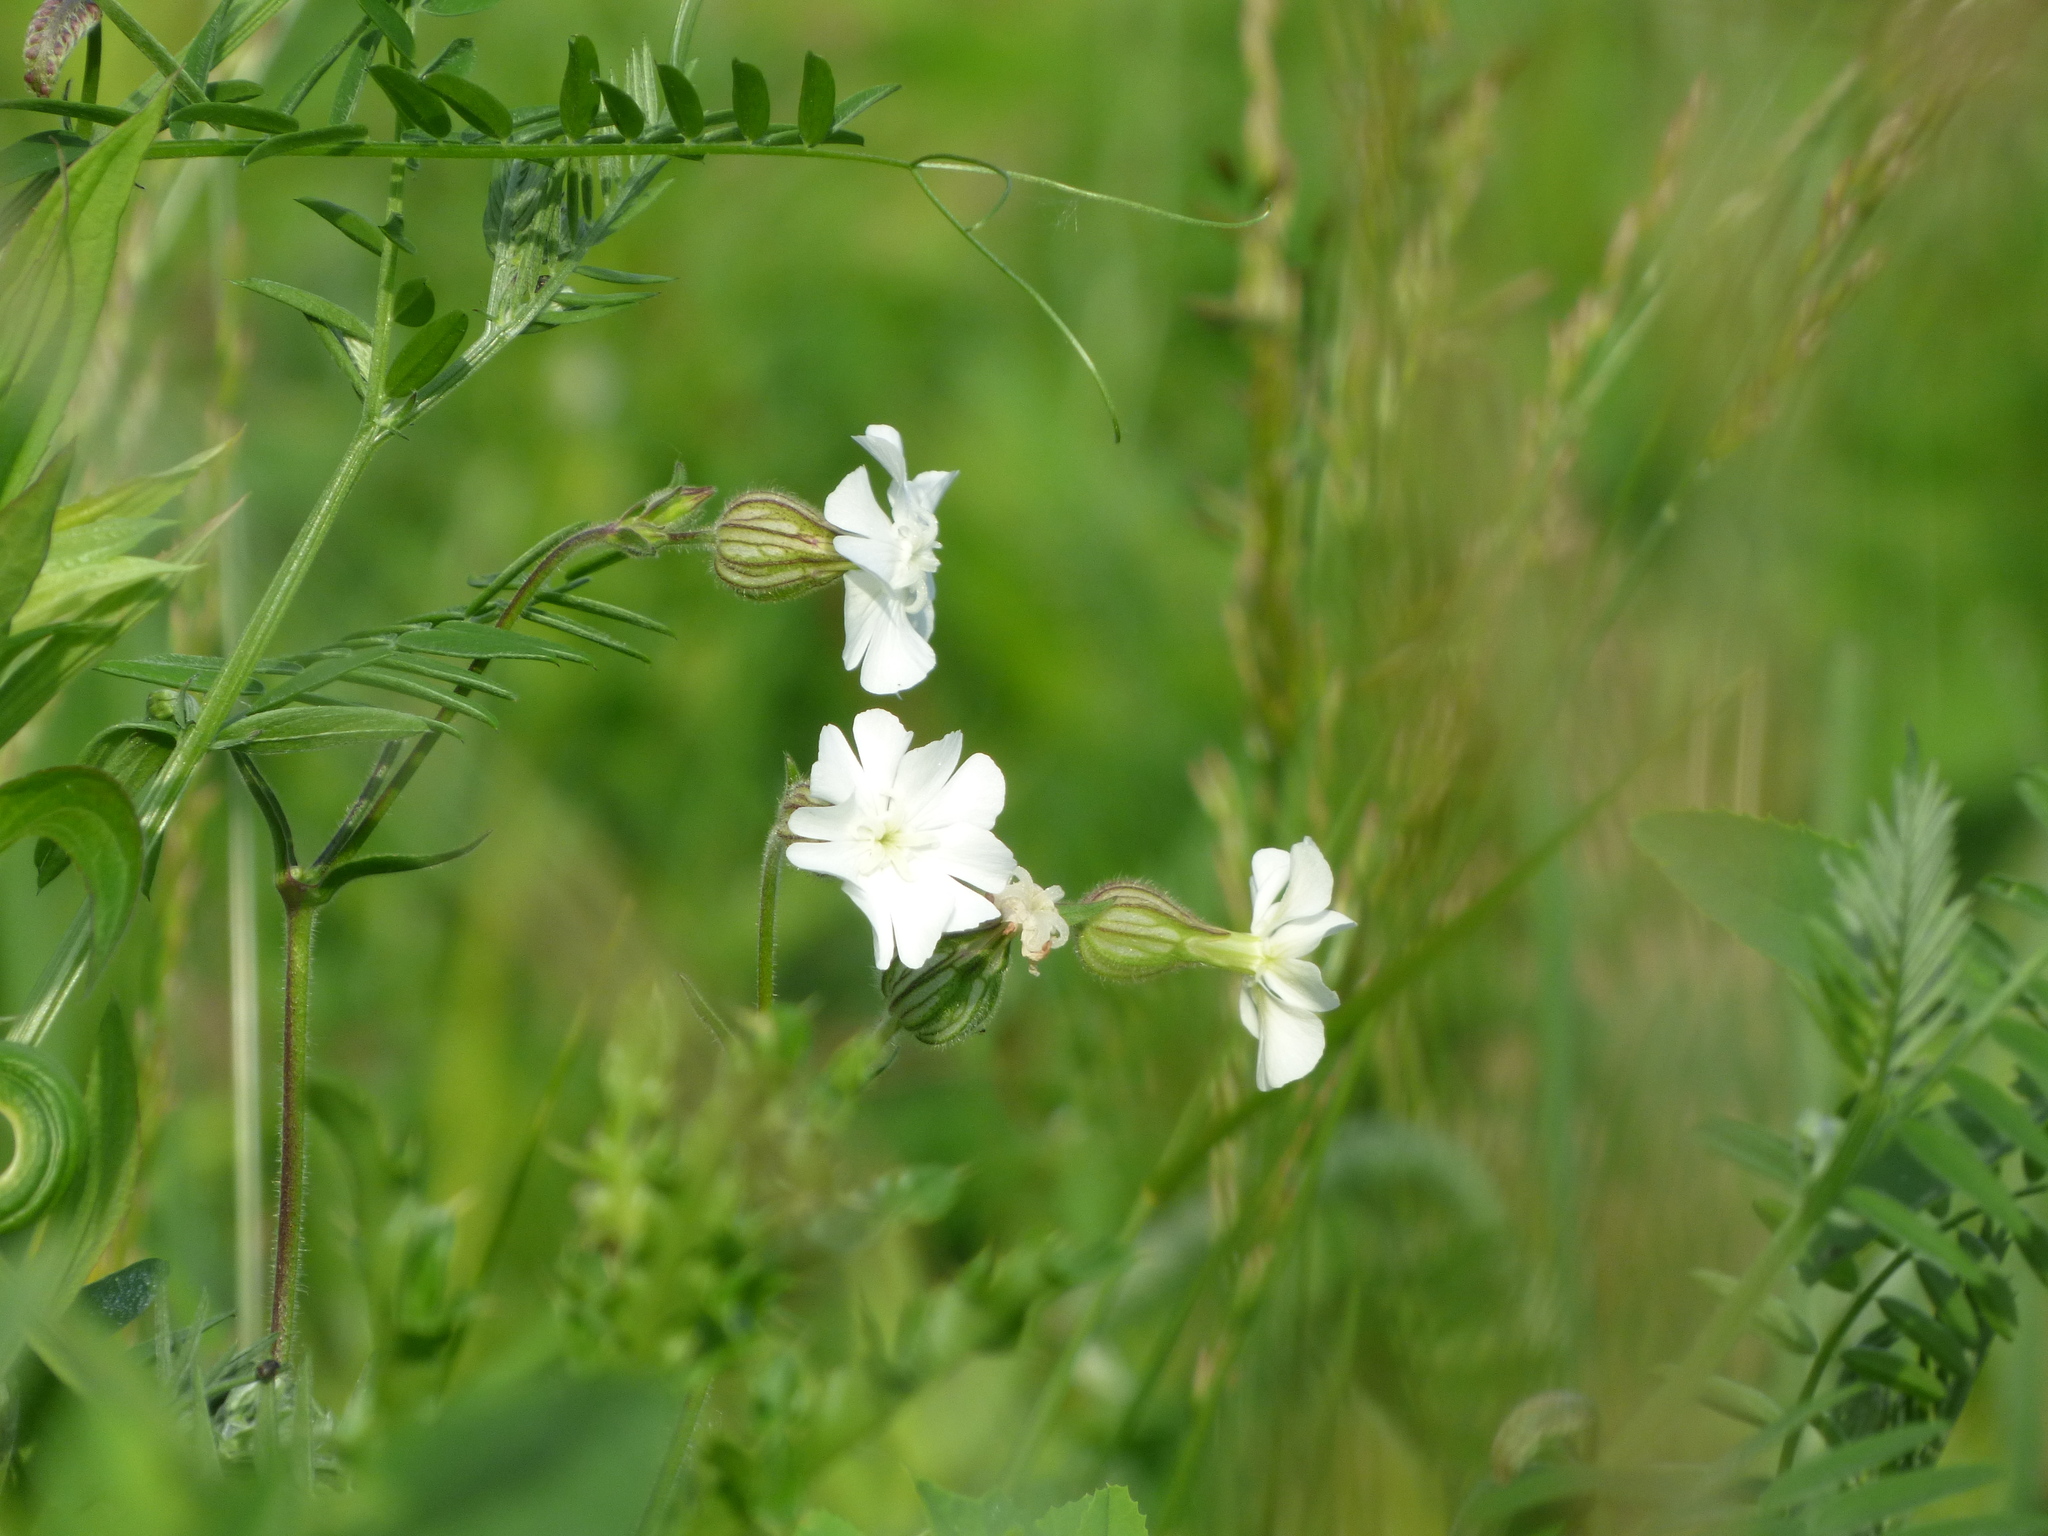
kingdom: Plantae
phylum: Tracheophyta
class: Magnoliopsida
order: Caryophyllales
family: Caryophyllaceae
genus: Silene
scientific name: Silene latifolia
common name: White campion
